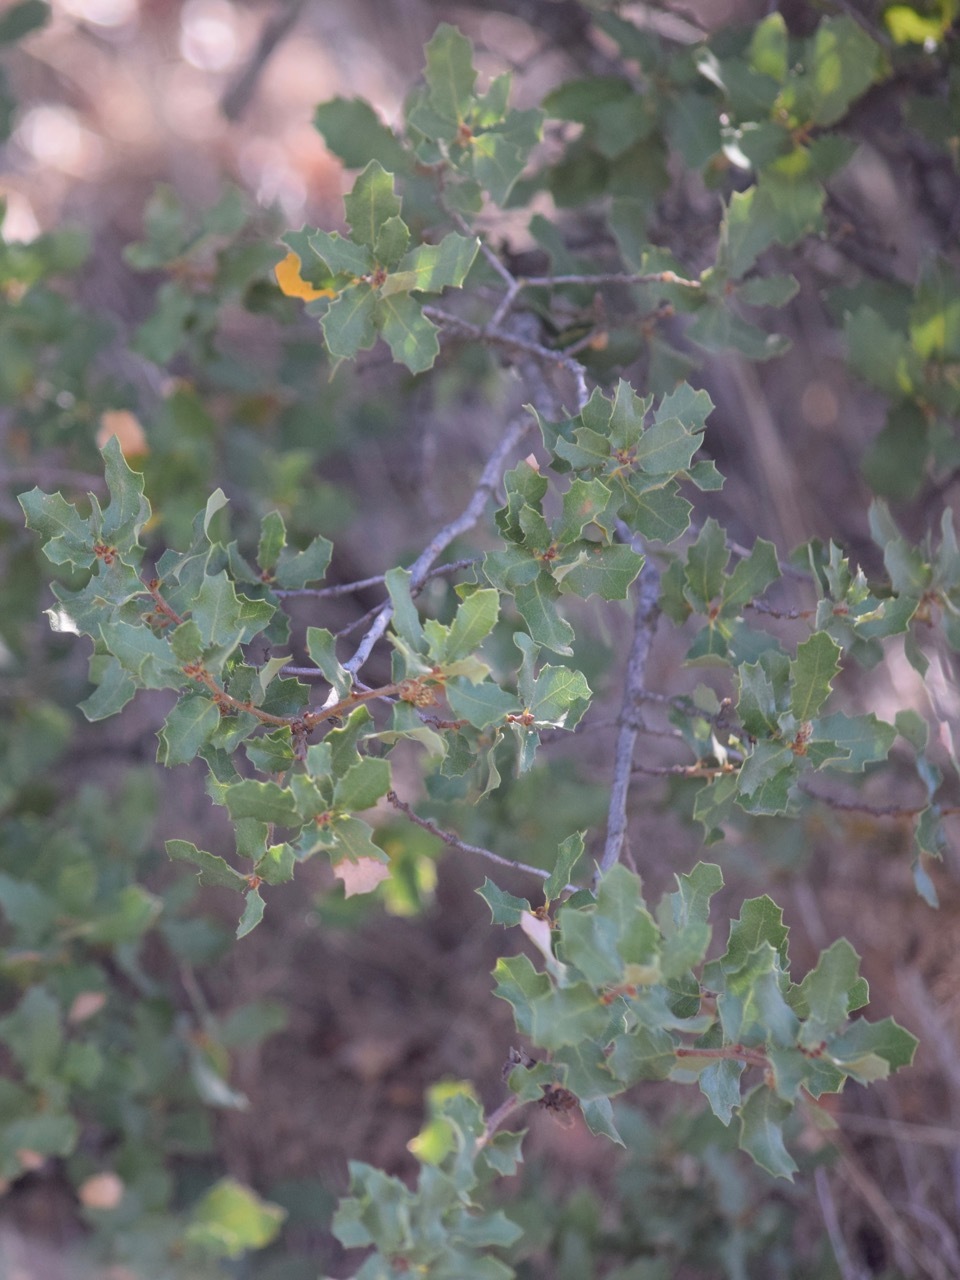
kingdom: Plantae
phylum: Tracheophyta
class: Magnoliopsida
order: Fagales
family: Fagaceae
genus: Quercus
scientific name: Quercus alvordiana
